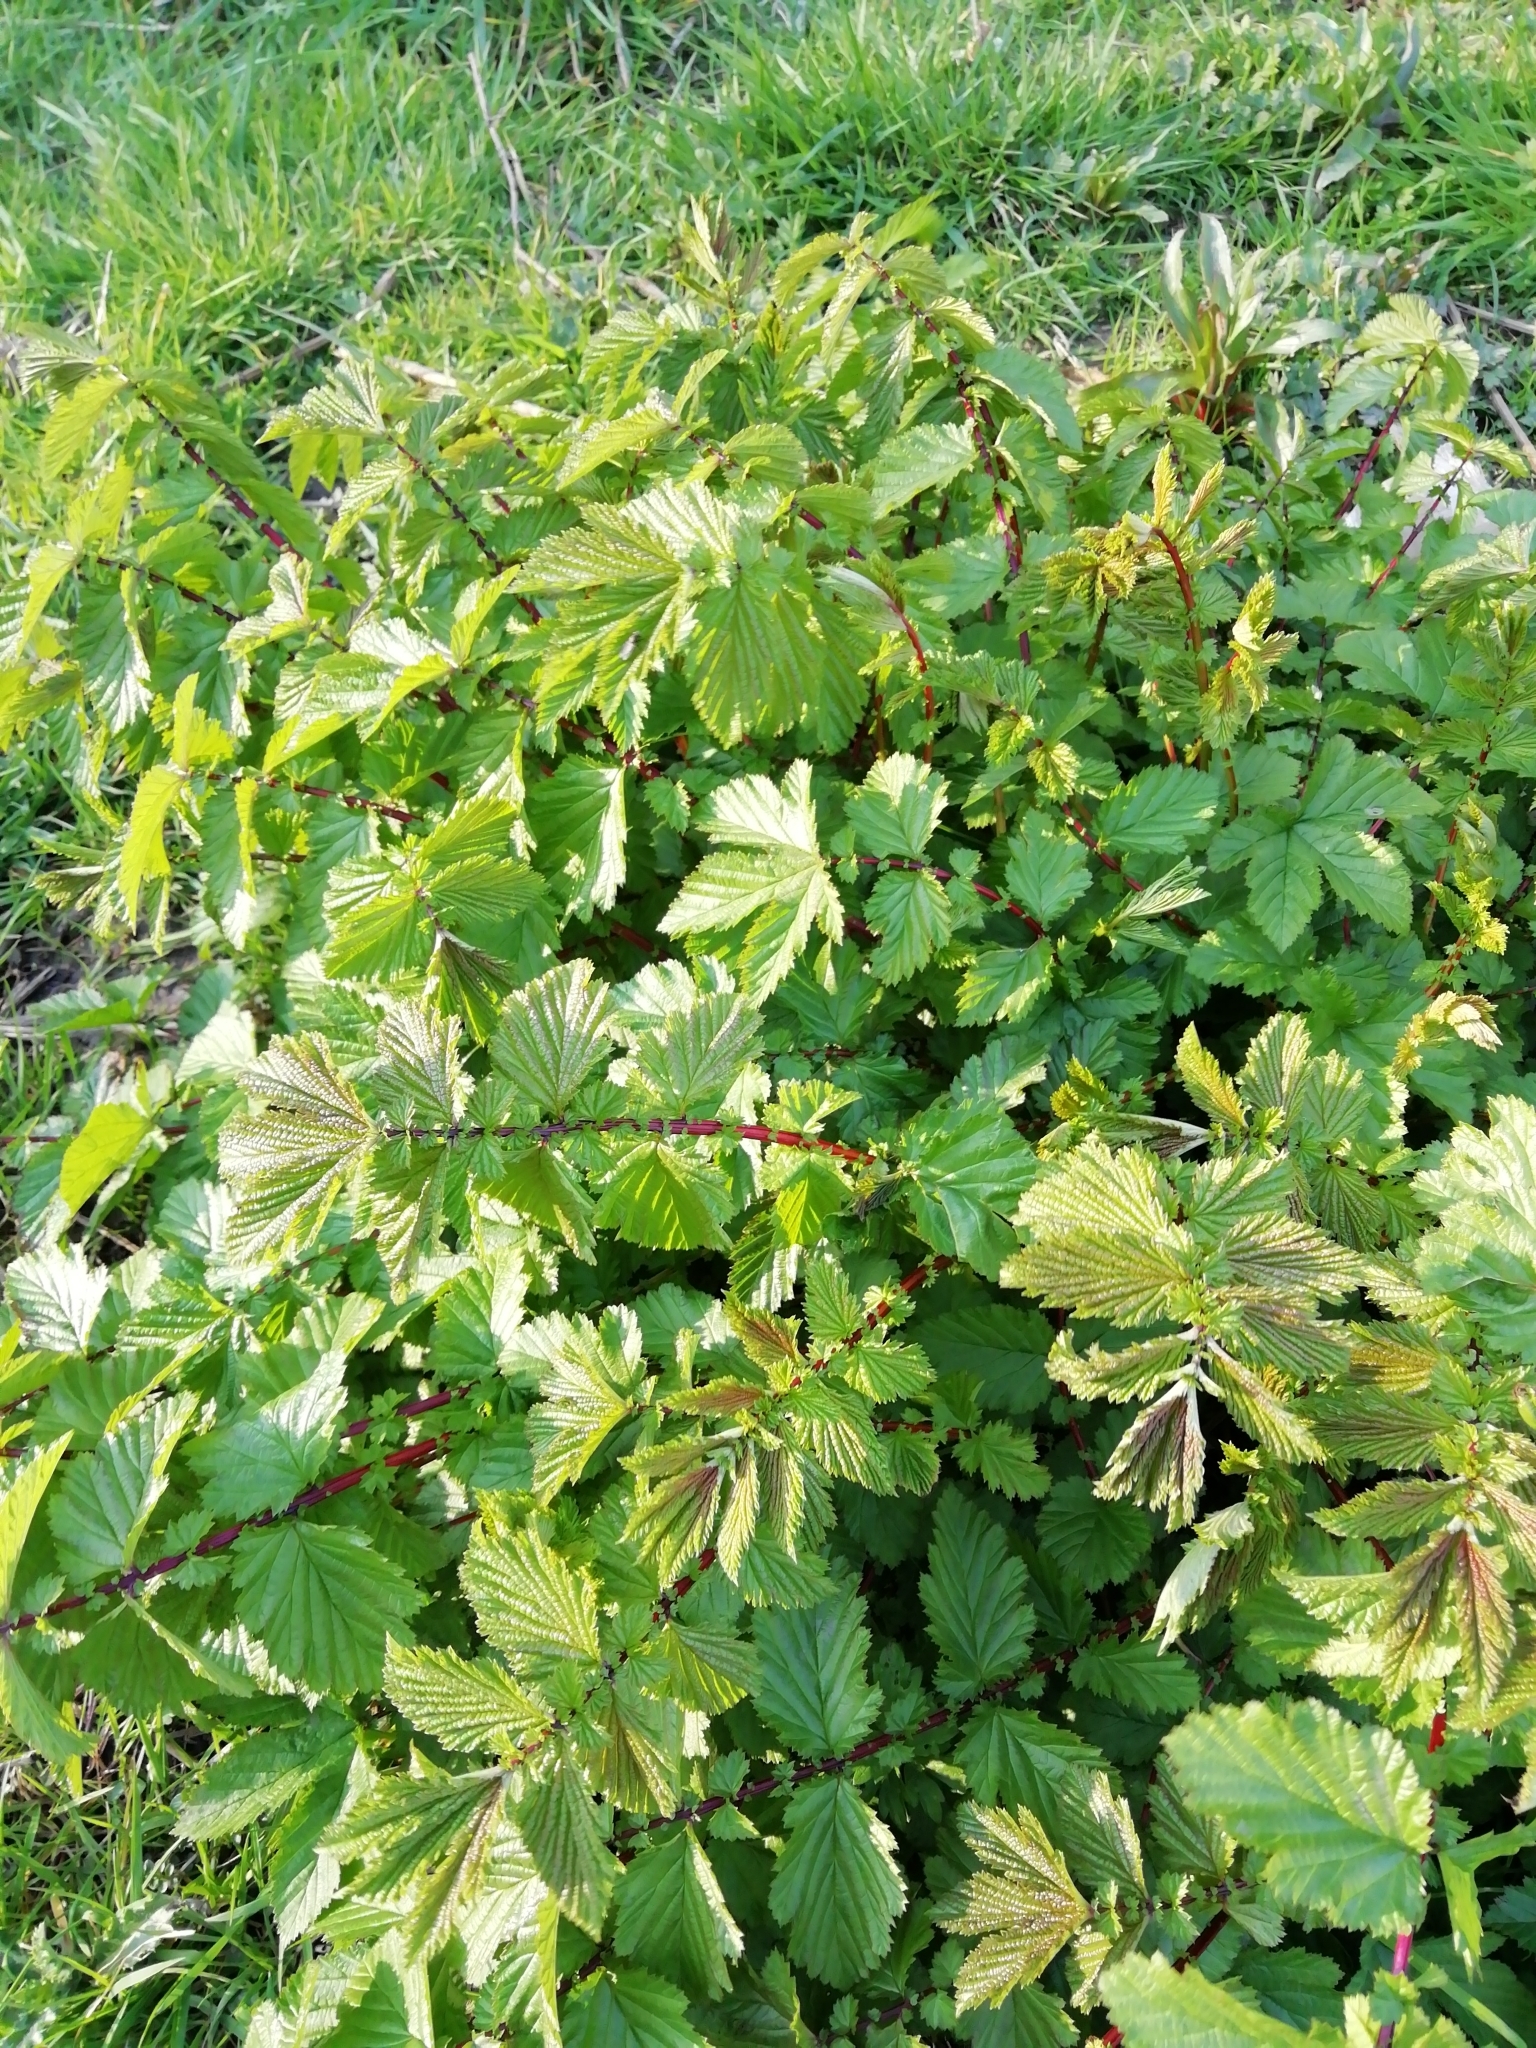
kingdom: Plantae
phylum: Tracheophyta
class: Magnoliopsida
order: Rosales
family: Rosaceae
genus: Filipendula
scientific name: Filipendula ulmaria
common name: Meadowsweet
